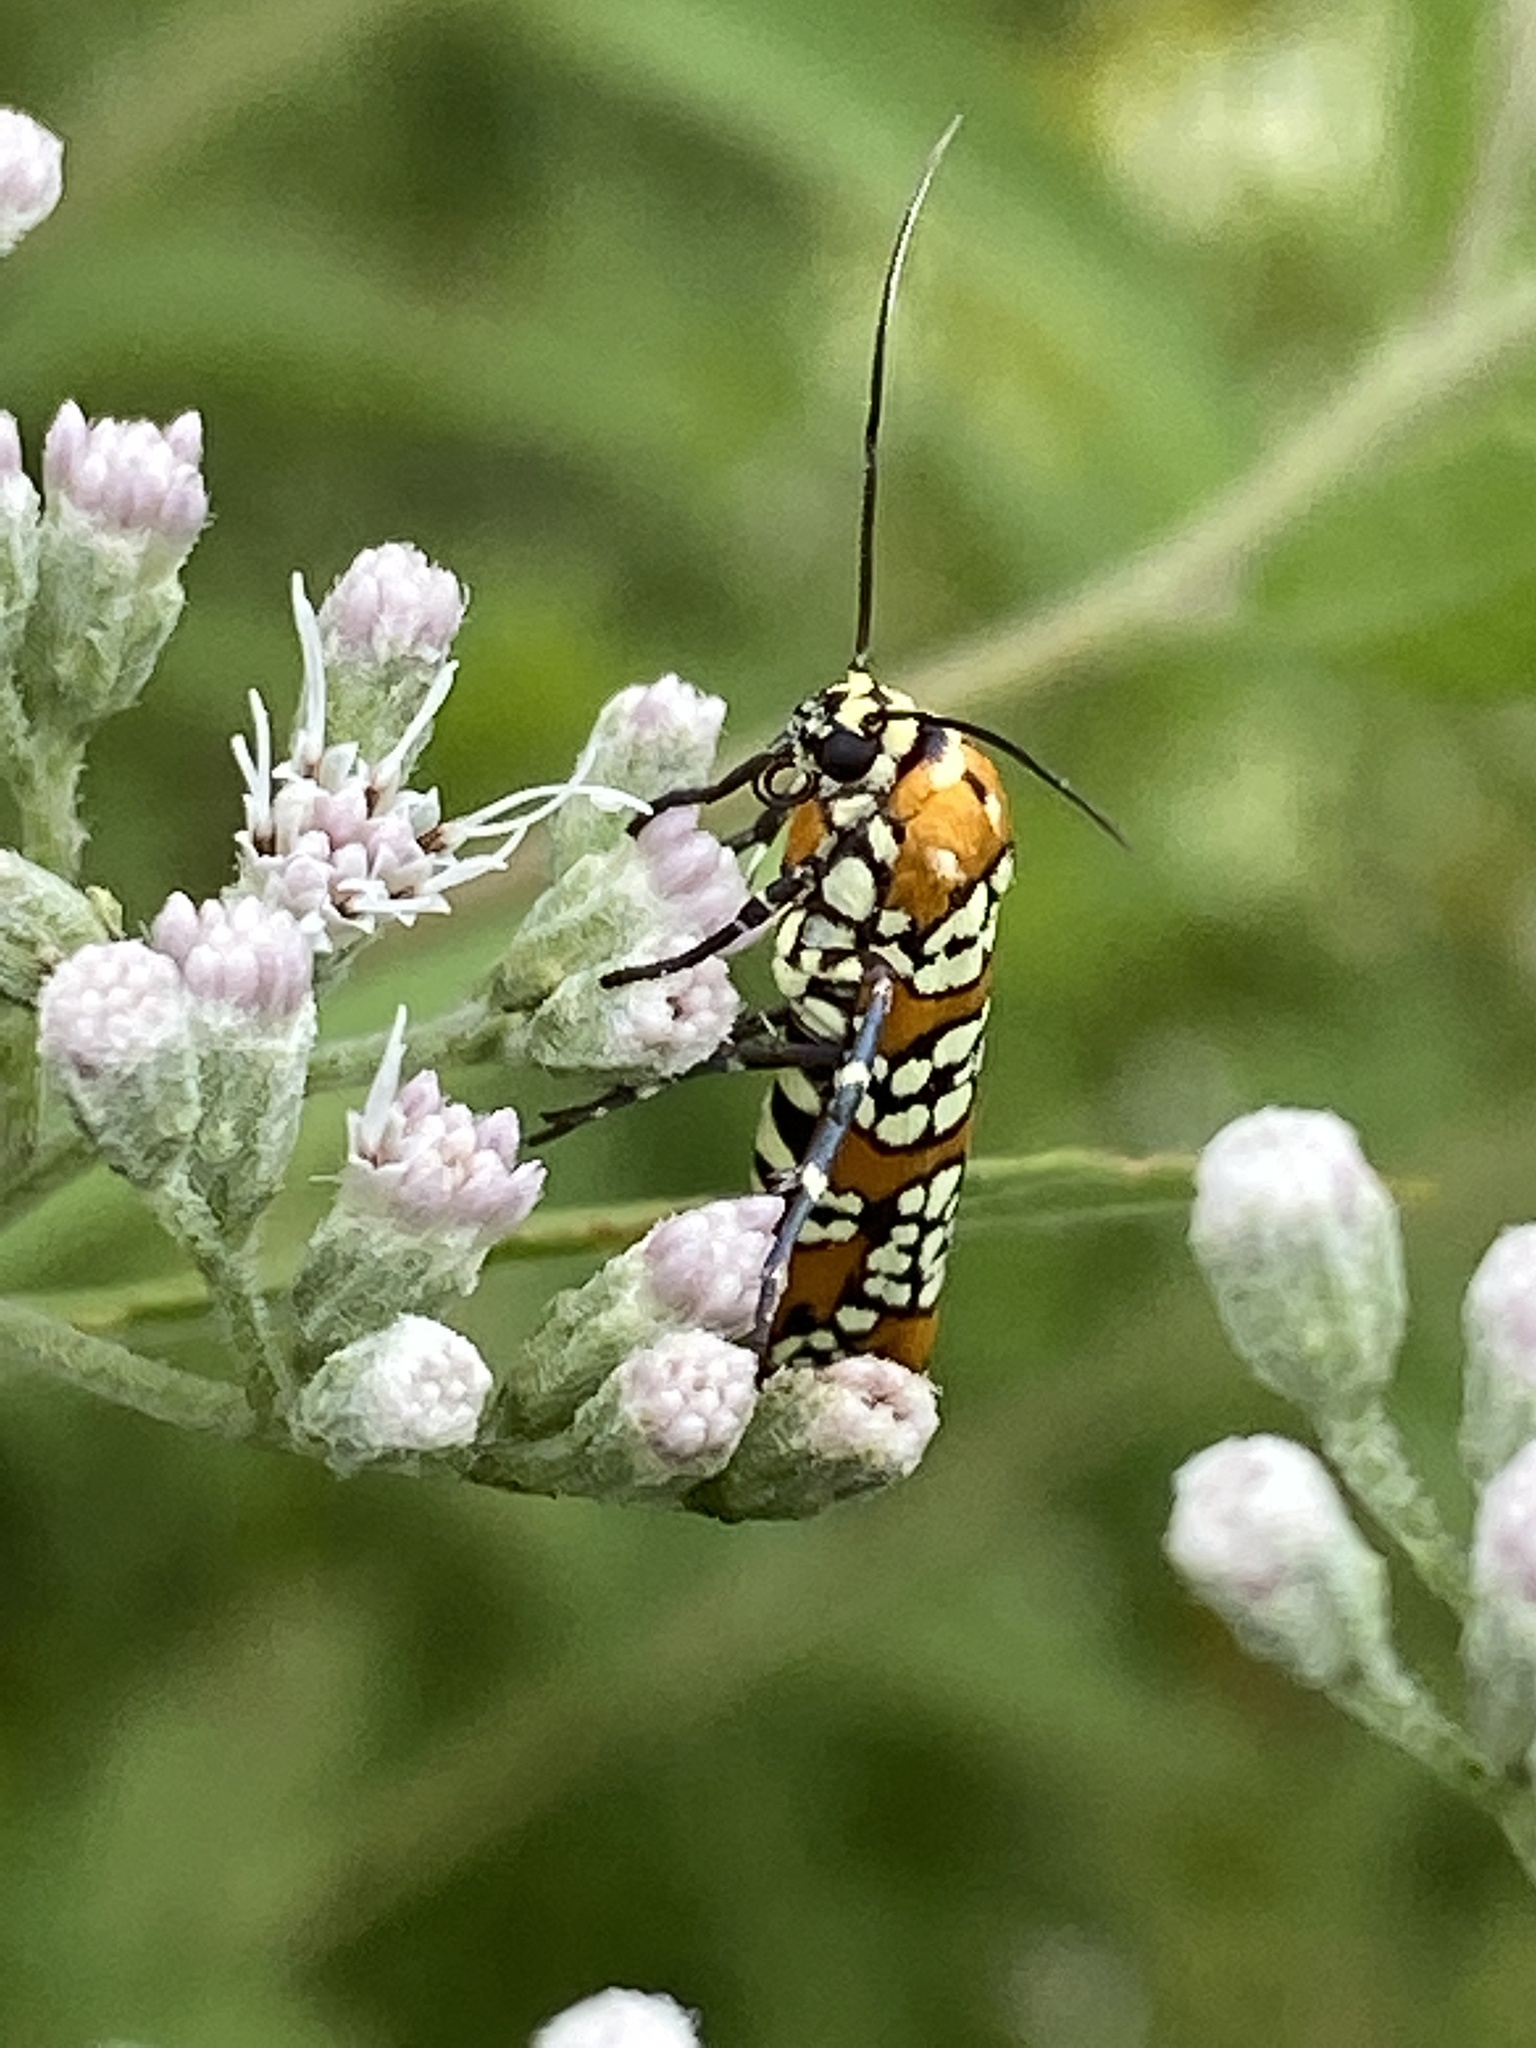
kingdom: Animalia
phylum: Arthropoda
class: Insecta
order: Lepidoptera
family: Attevidae
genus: Atteva
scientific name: Atteva punctella
